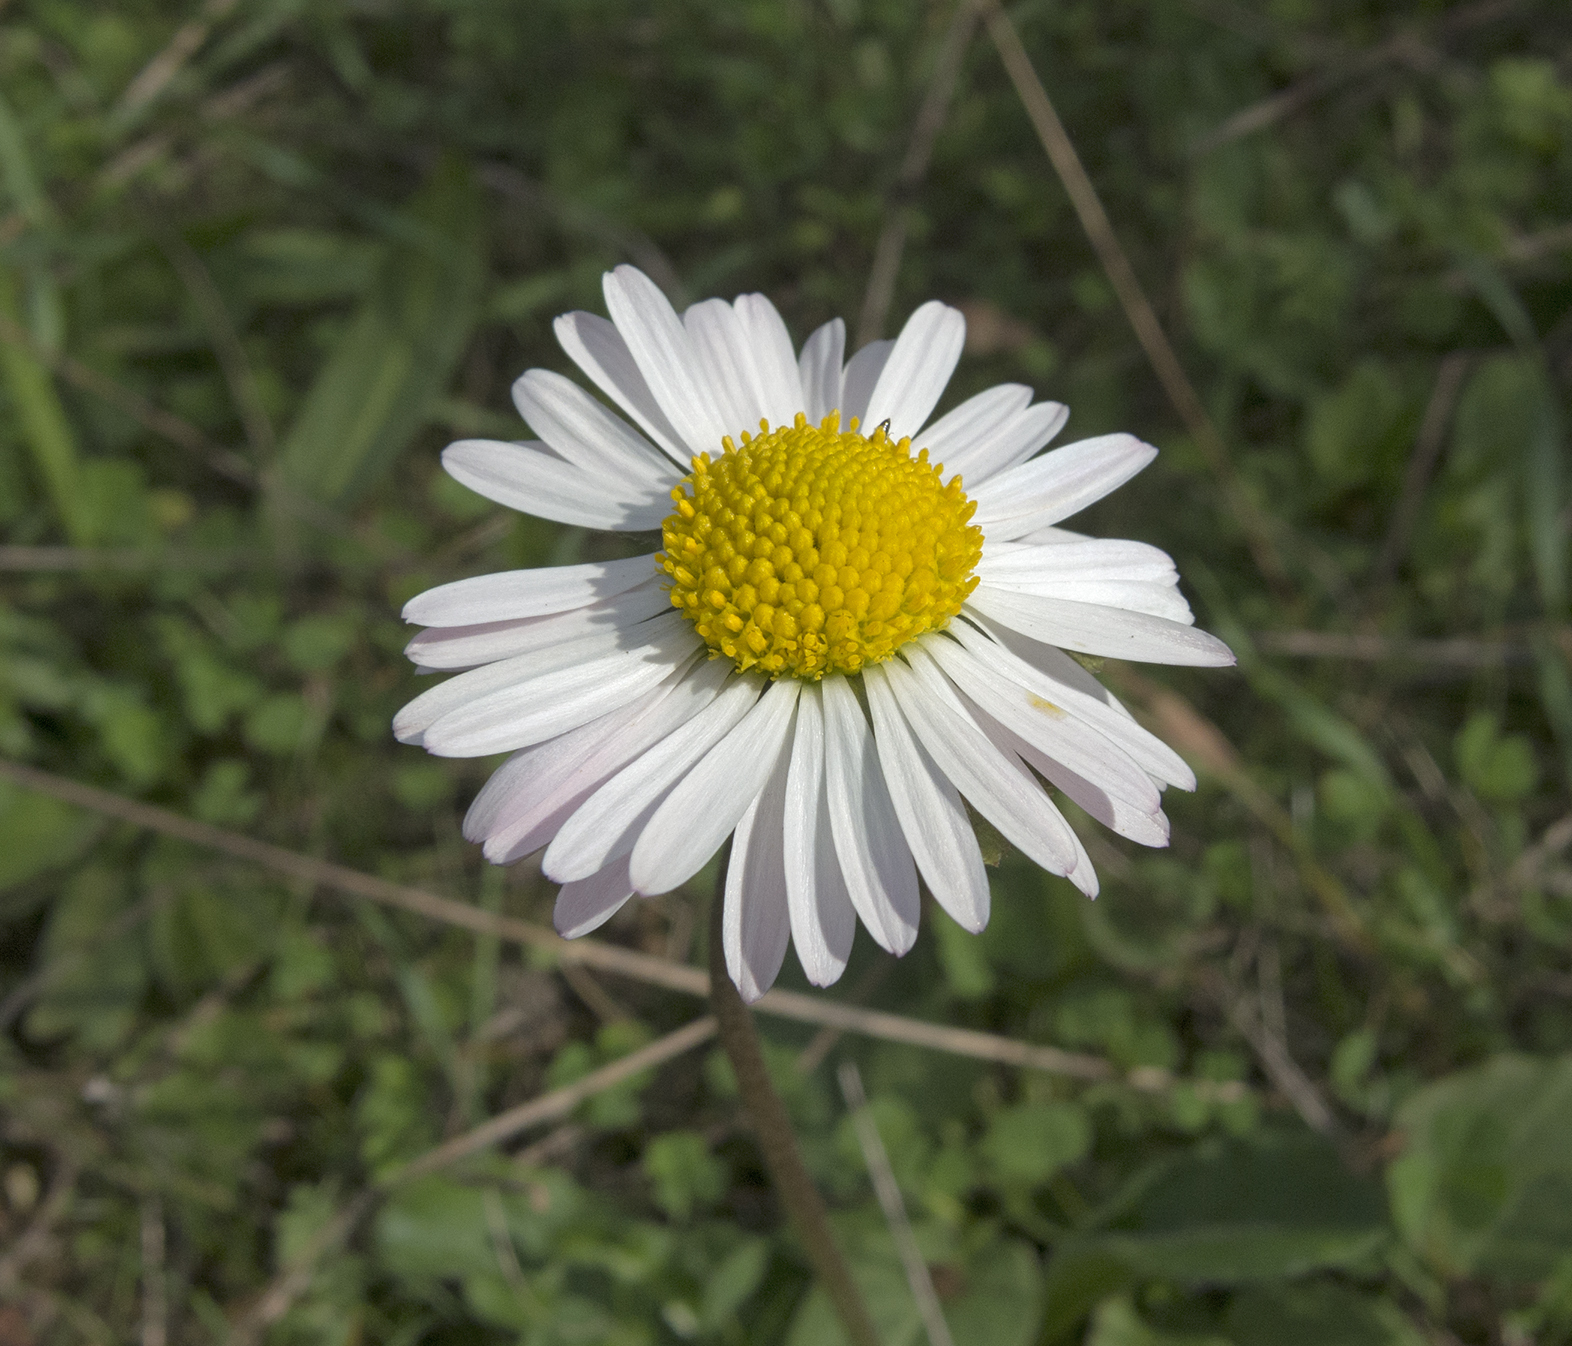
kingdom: Plantae
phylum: Tracheophyta
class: Magnoliopsida
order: Asterales
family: Asteraceae
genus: Bellis
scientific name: Bellis perennis
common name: Lawndaisy
